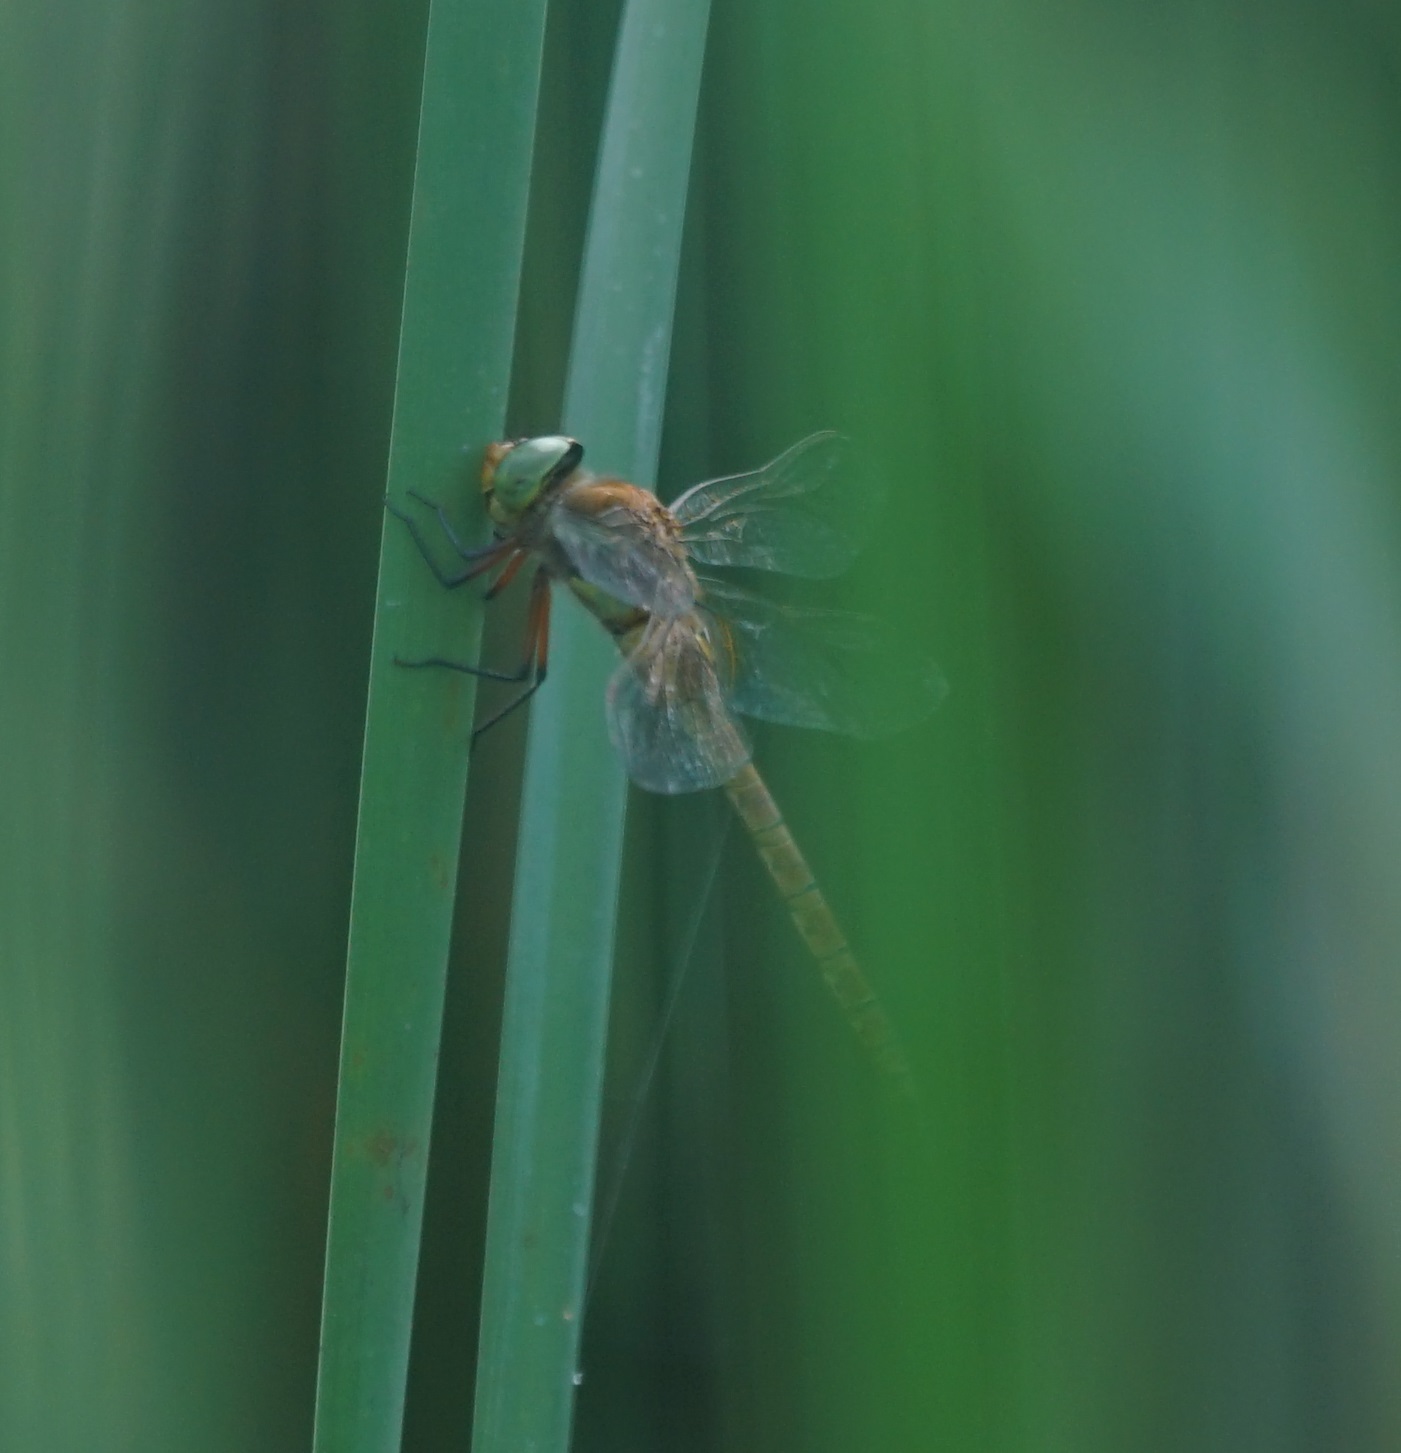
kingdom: Animalia
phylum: Arthropoda
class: Insecta
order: Odonata
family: Aeshnidae
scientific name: Aeshnidae
